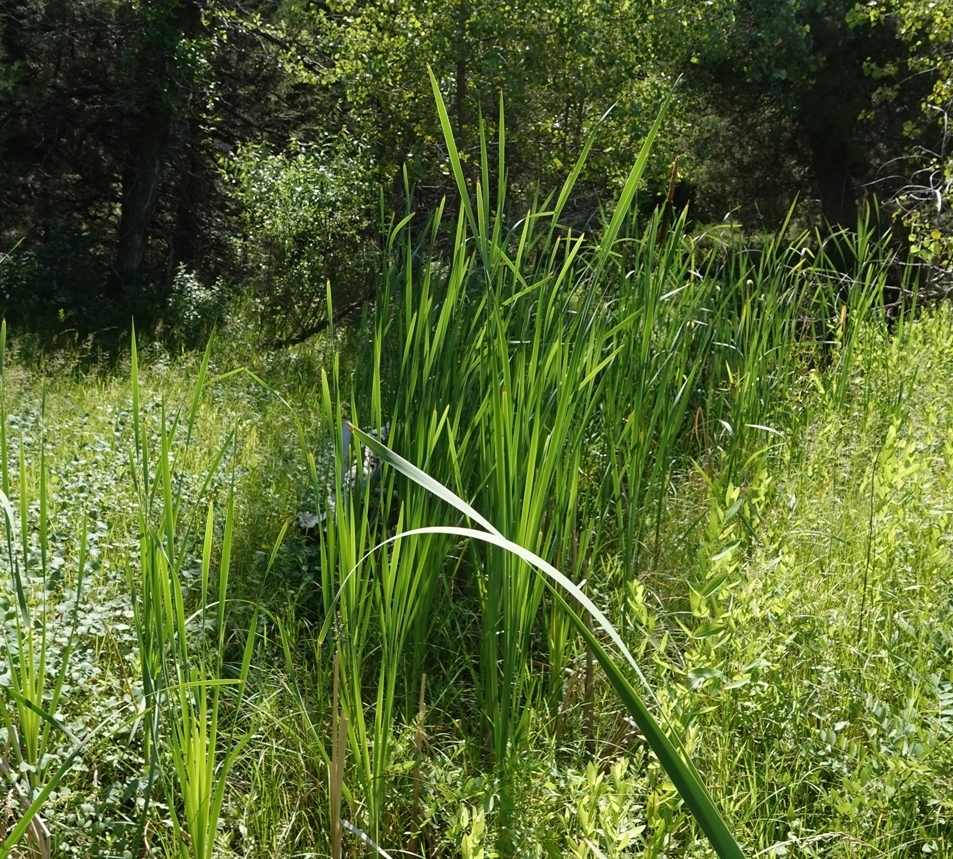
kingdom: Plantae
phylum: Tracheophyta
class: Liliopsida
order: Poales
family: Typhaceae
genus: Typha
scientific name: Typha latifolia
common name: Broadleaf cattail
